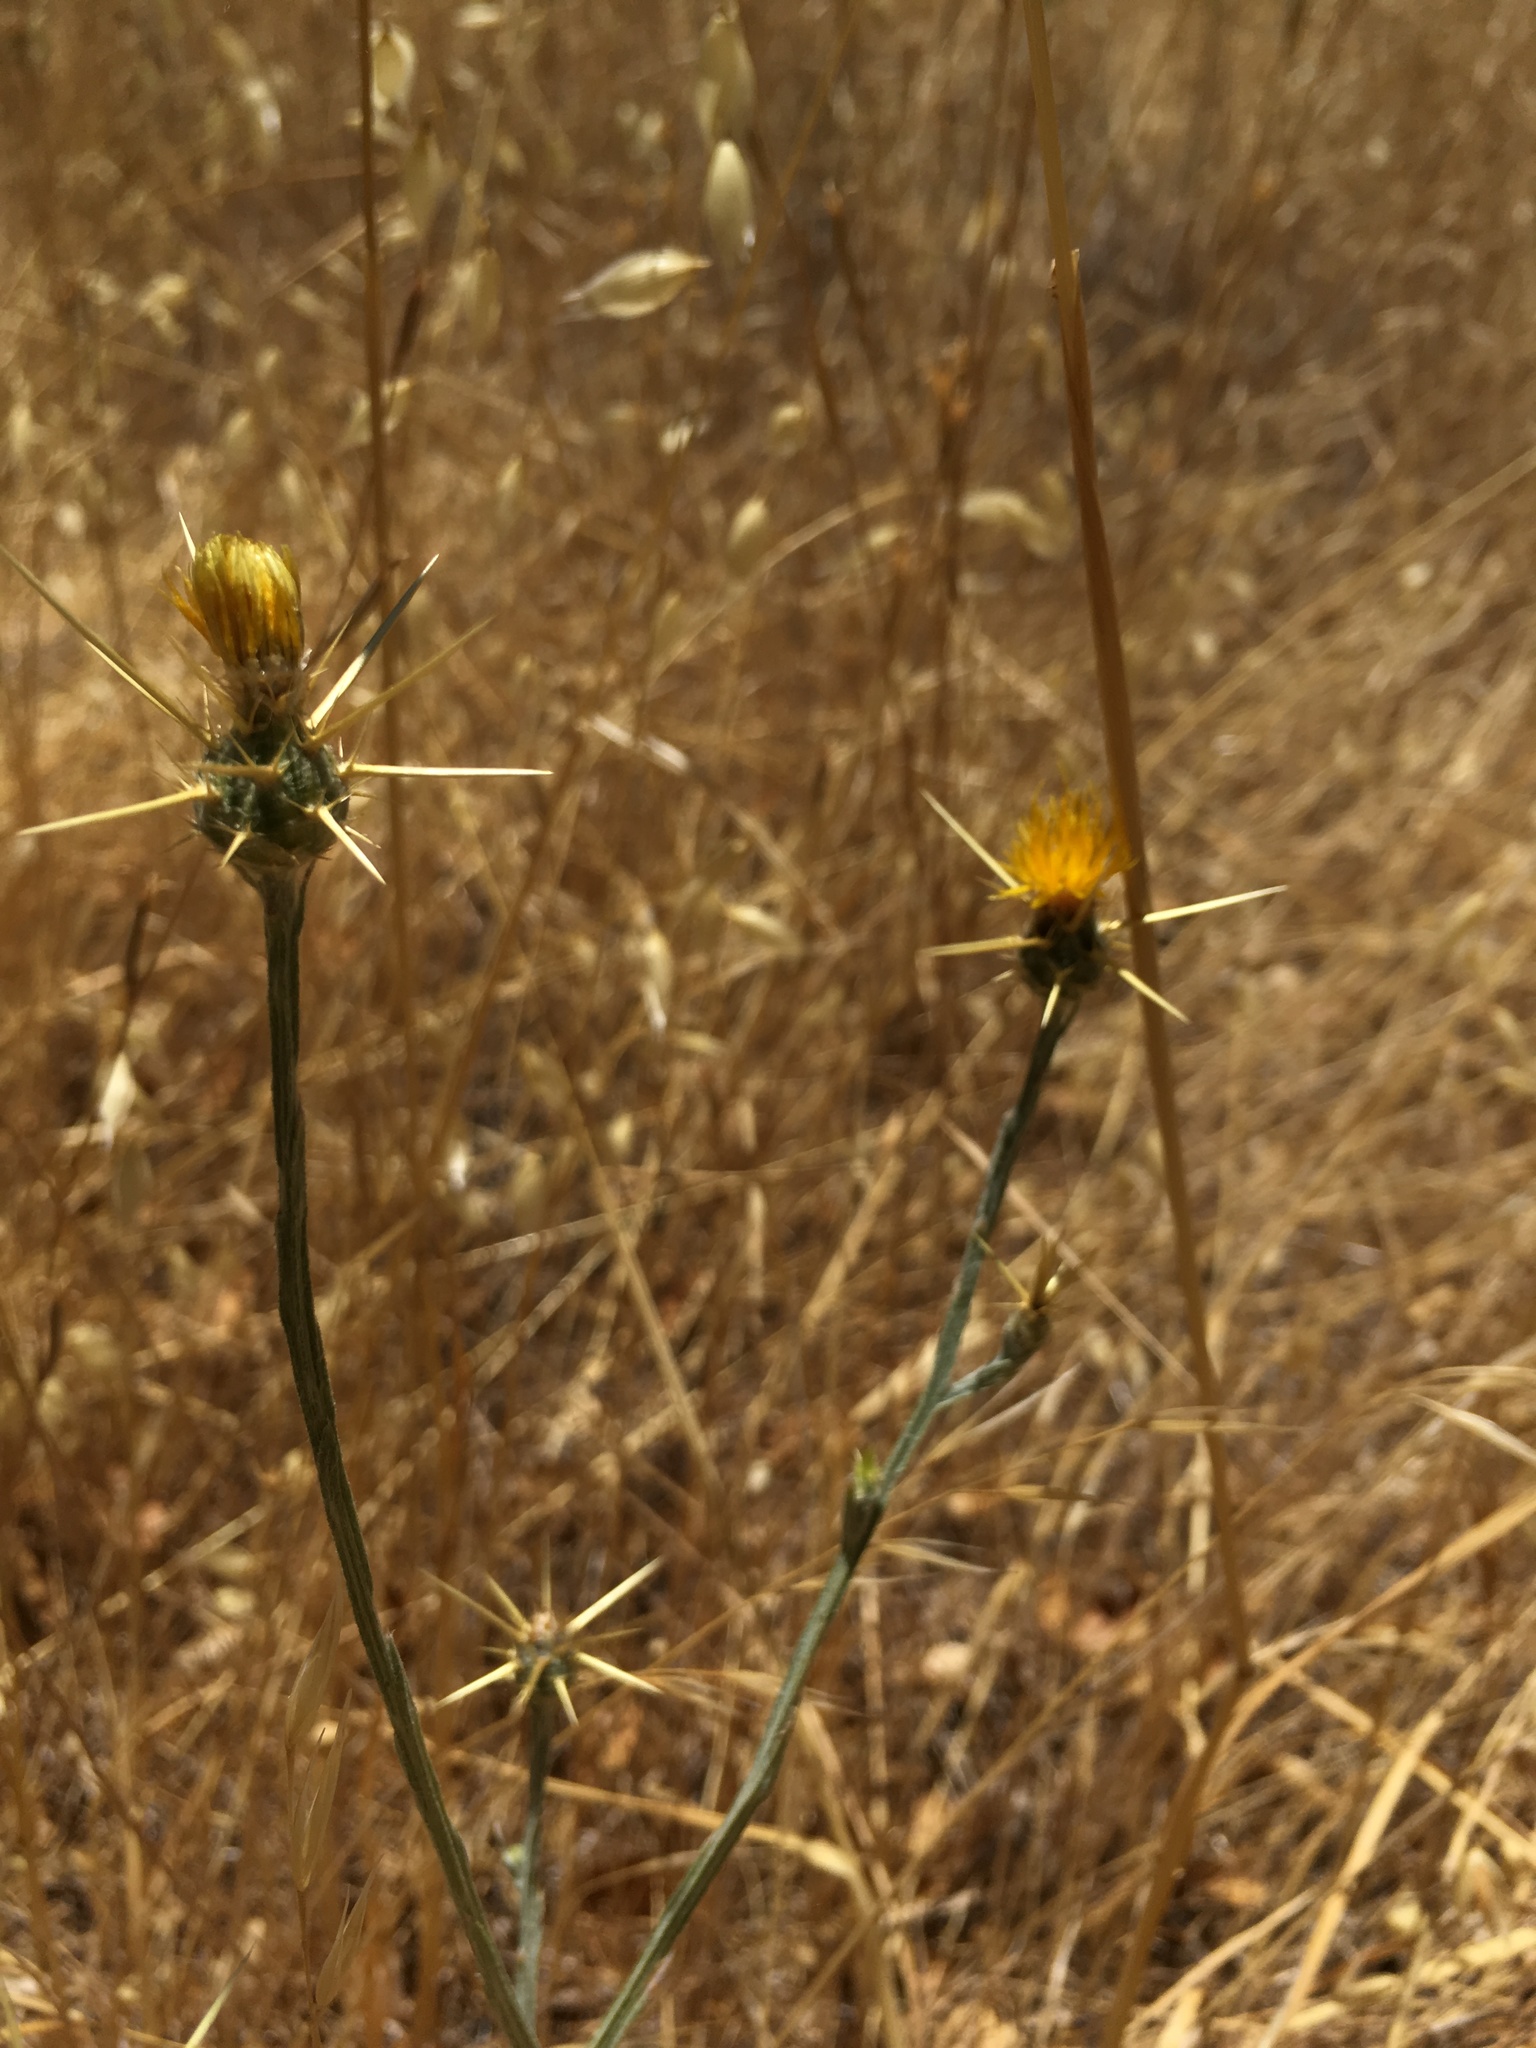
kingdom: Plantae
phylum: Tracheophyta
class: Magnoliopsida
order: Asterales
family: Asteraceae
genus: Centaurea
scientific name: Centaurea solstitialis
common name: Yellow star-thistle
